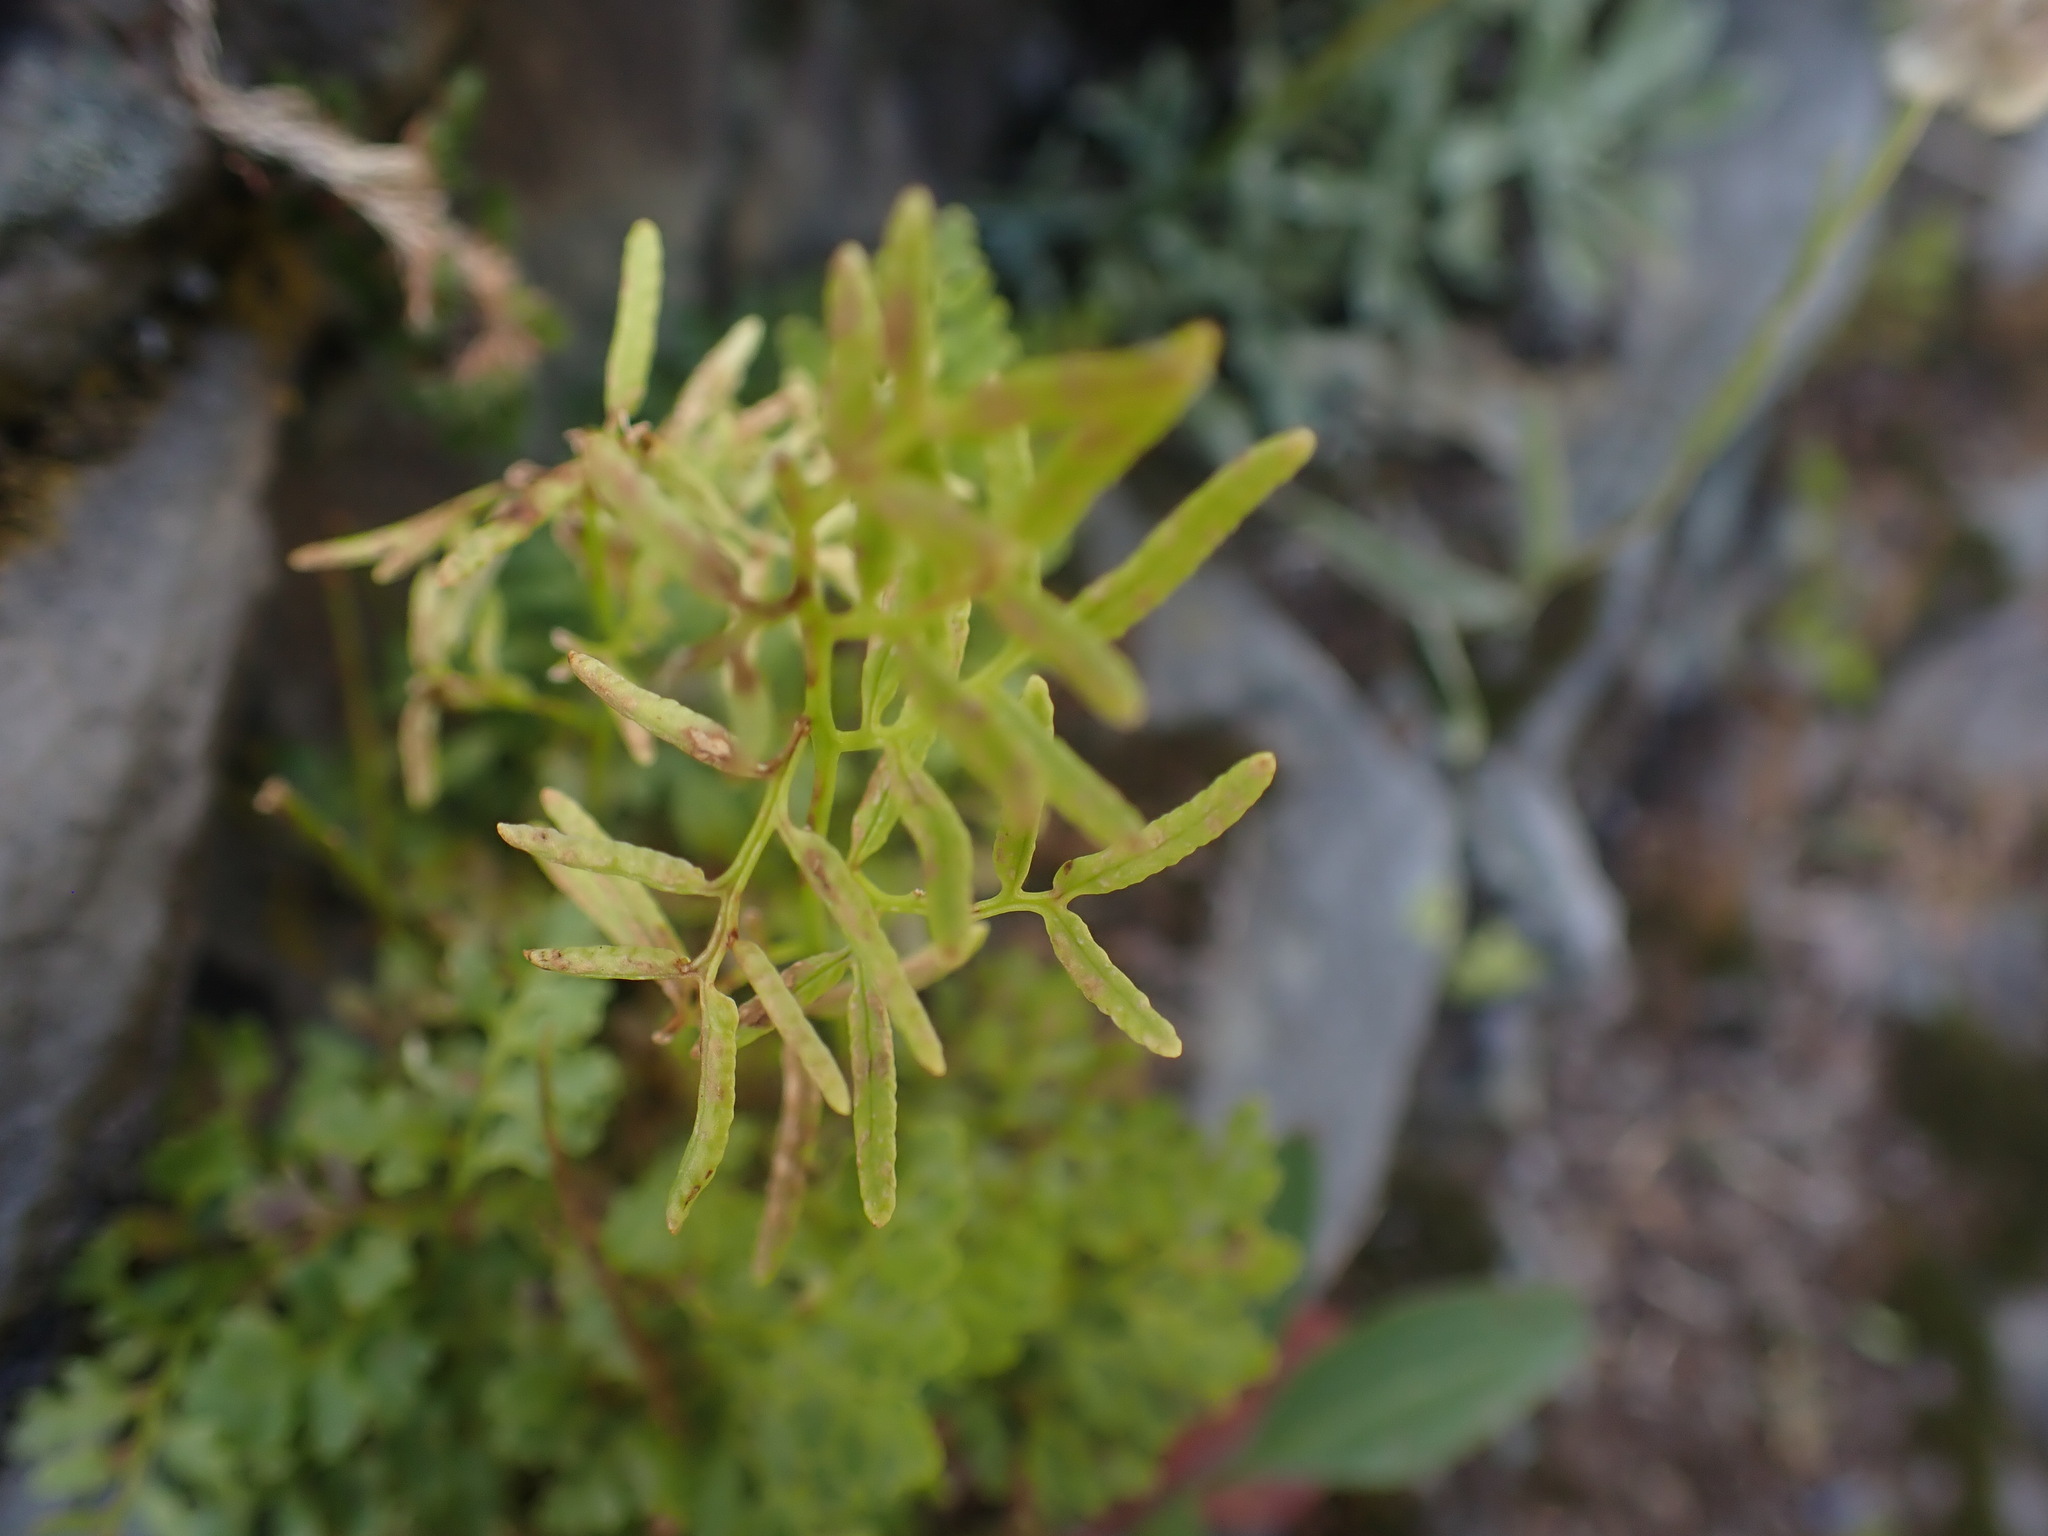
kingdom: Plantae
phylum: Tracheophyta
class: Polypodiopsida
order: Polypodiales
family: Pteridaceae
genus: Cryptogramma
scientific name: Cryptogramma acrostichoides
